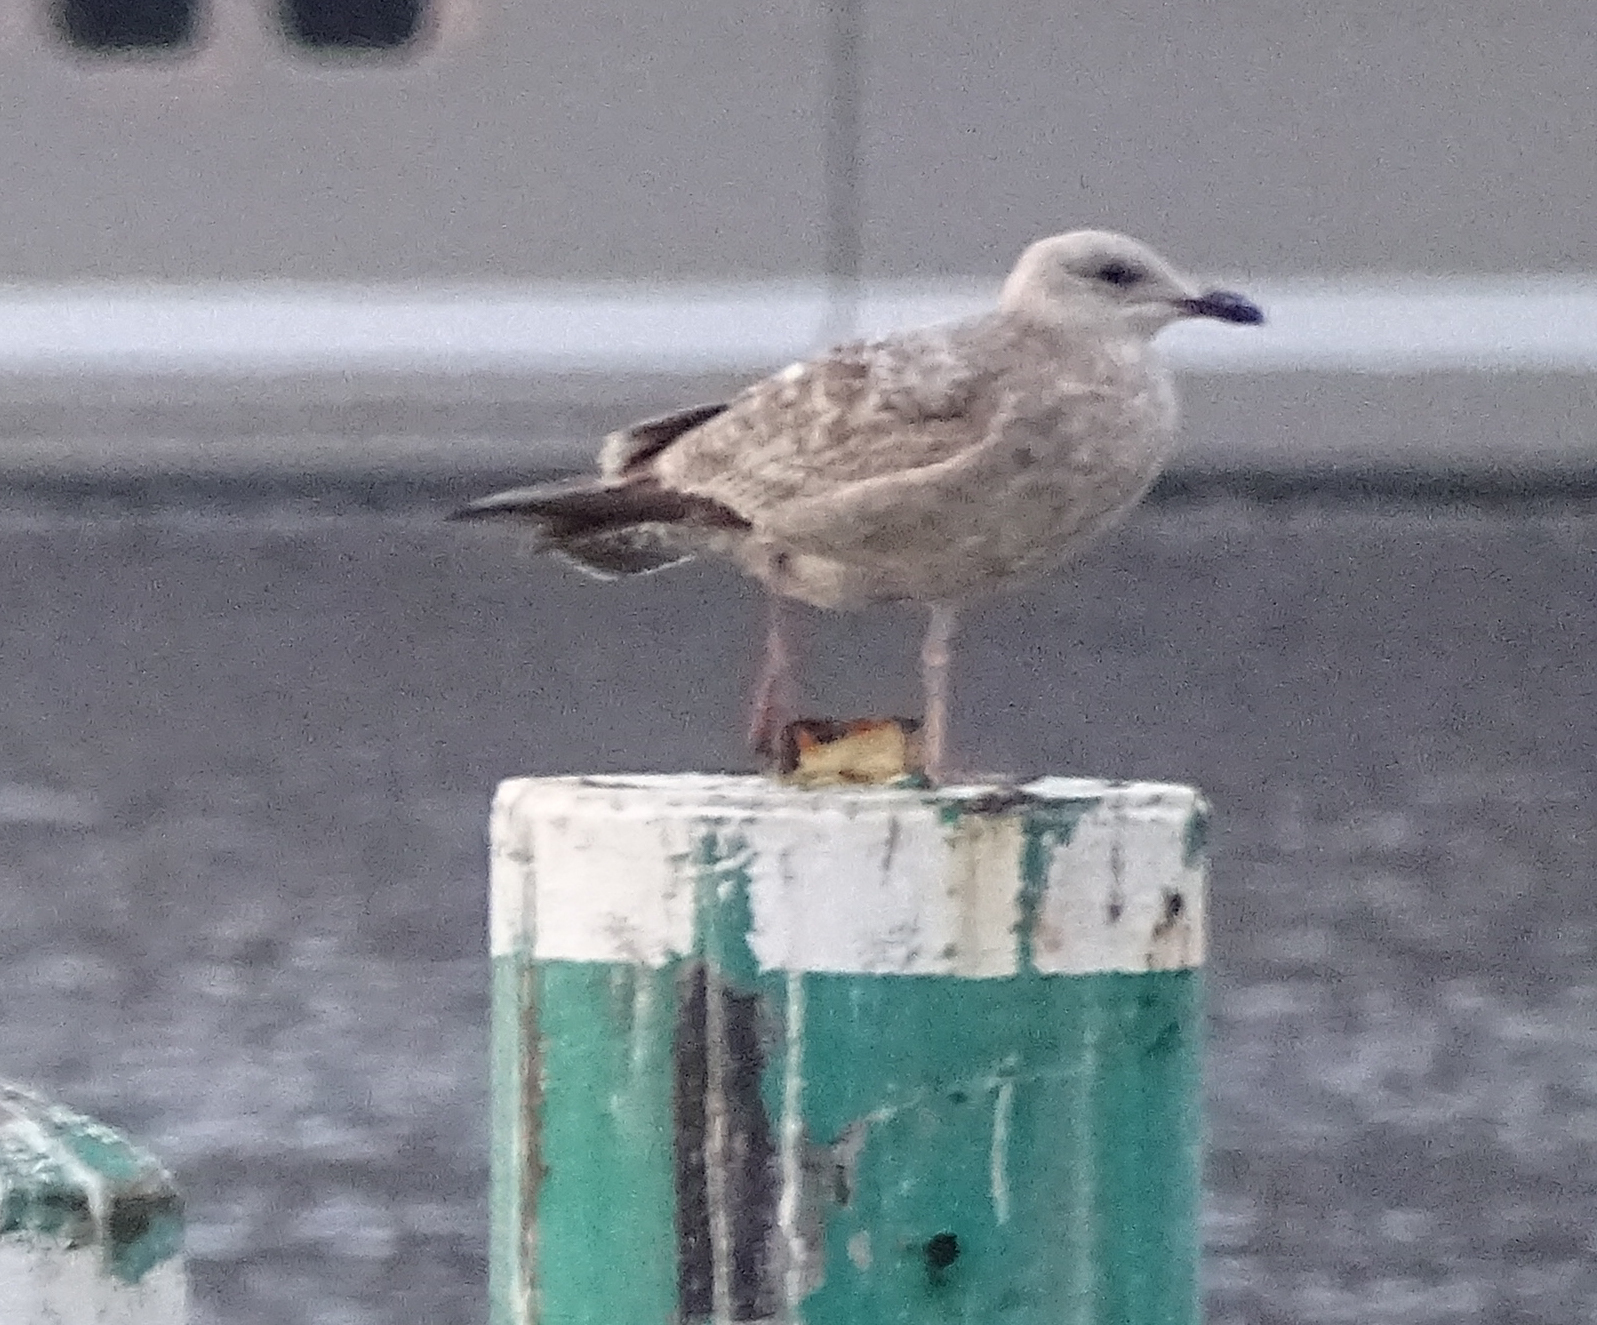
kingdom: Animalia
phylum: Chordata
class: Aves
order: Charadriiformes
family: Laridae
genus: Larus
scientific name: Larus argentatus
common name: Herring gull
